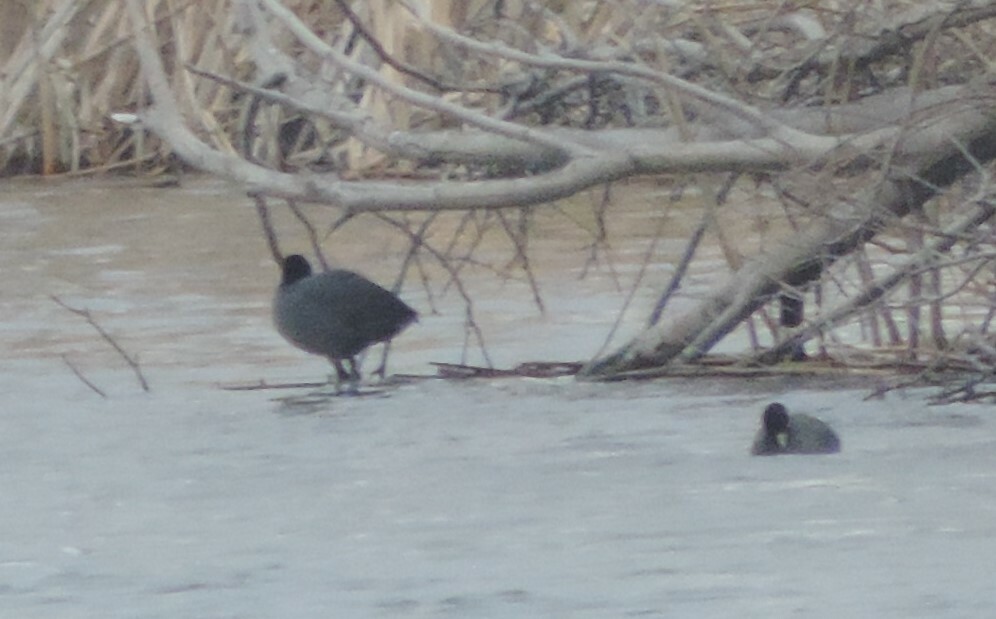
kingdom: Animalia
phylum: Chordata
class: Aves
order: Gruiformes
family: Rallidae
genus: Fulica
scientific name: Fulica americana
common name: American coot
